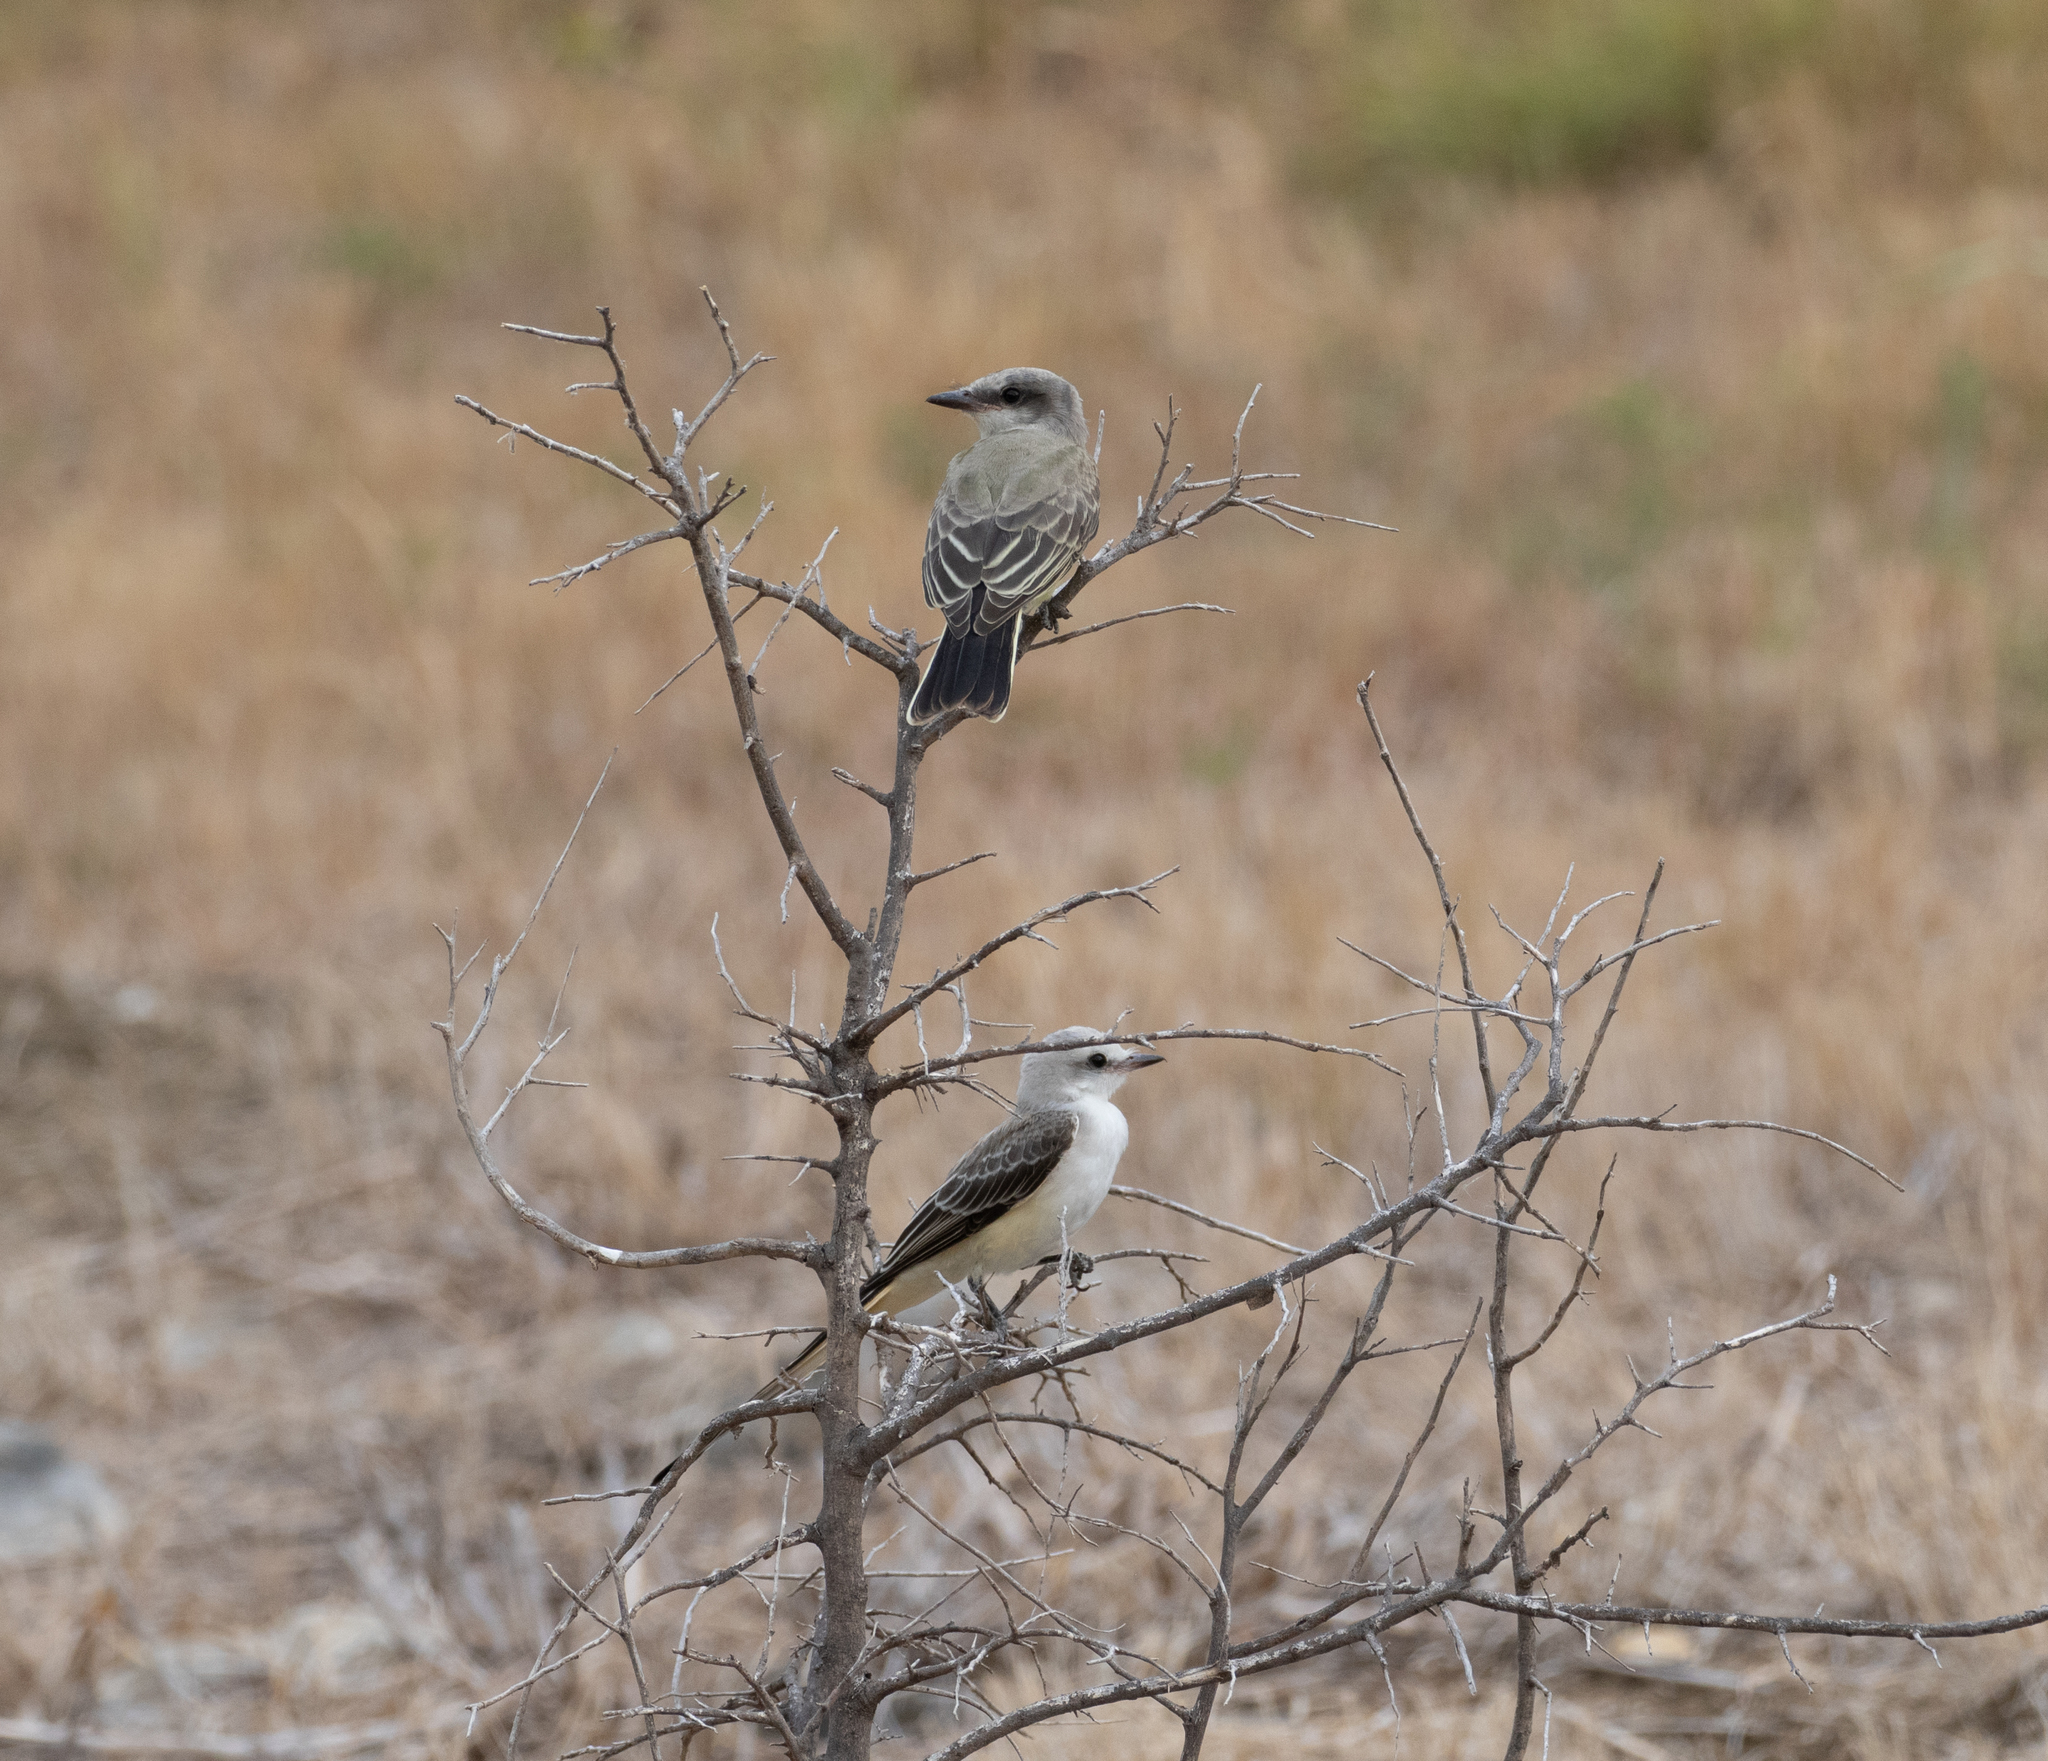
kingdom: Animalia
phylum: Chordata
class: Aves
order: Passeriformes
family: Tyrannidae
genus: Tyrannus
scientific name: Tyrannus verticalis
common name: Western kingbird
